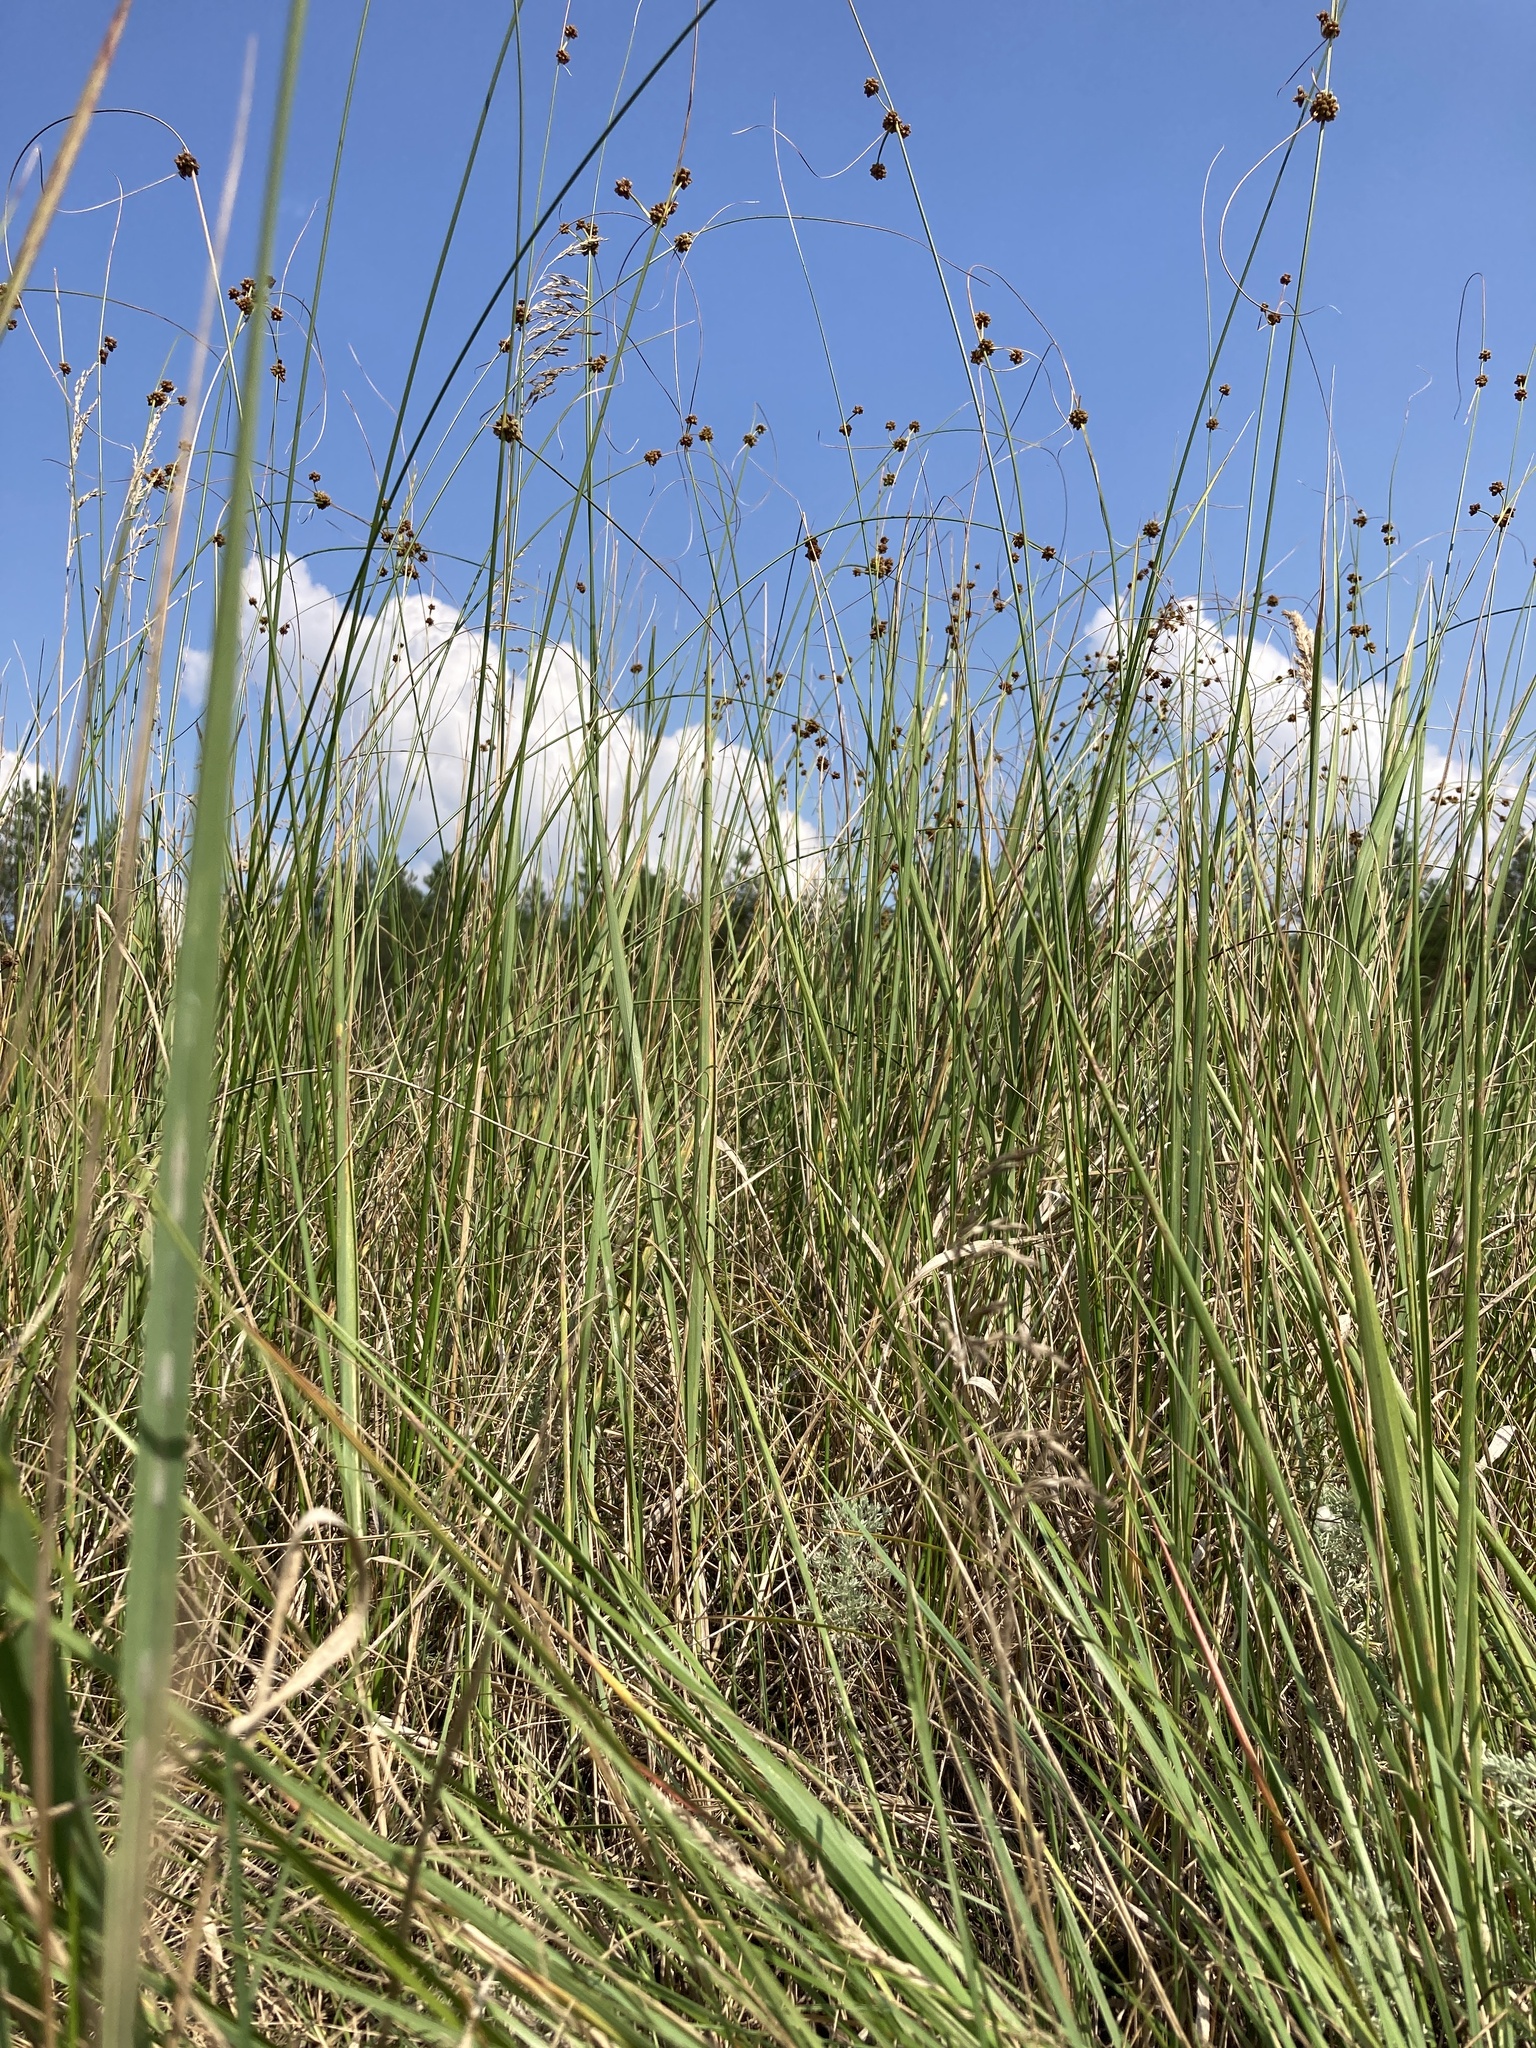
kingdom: Plantae
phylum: Tracheophyta
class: Liliopsida
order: Poales
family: Cyperaceae
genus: Scirpoides
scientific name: Scirpoides holoschoenus
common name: Round-headed club-rush
